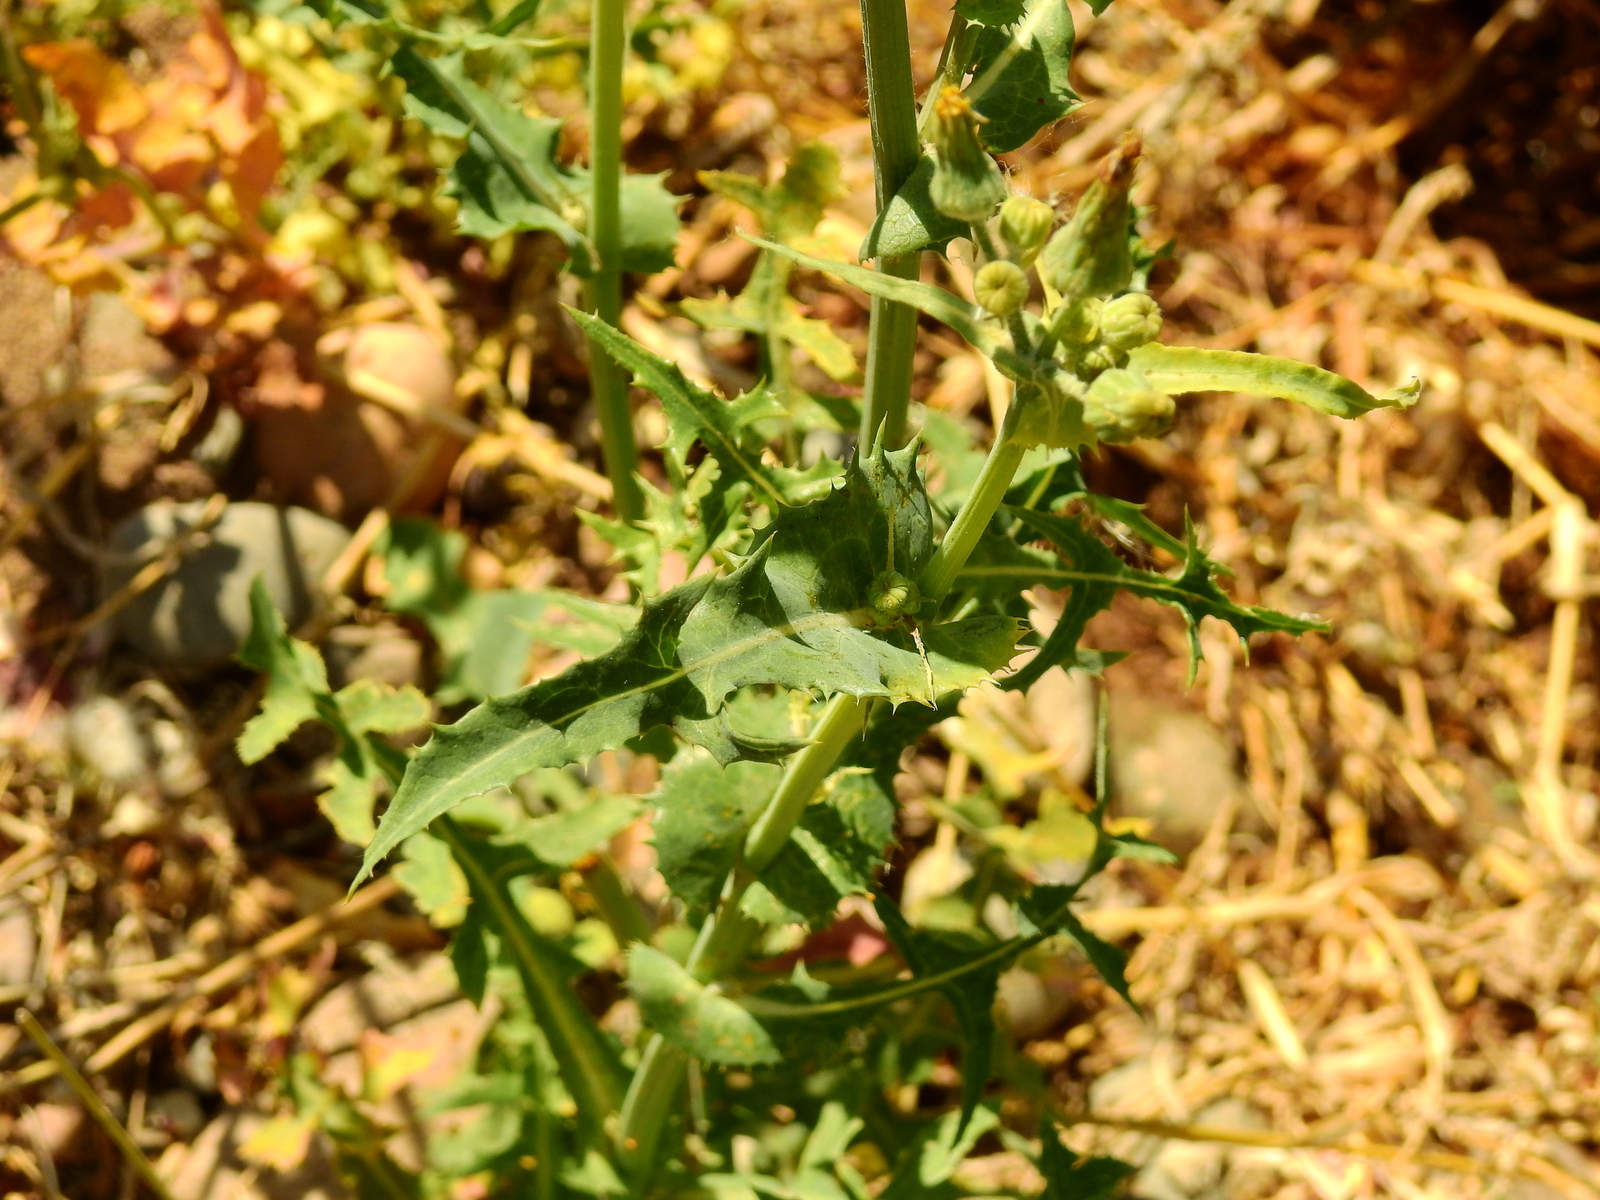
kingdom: Plantae
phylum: Tracheophyta
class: Magnoliopsida
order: Asterales
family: Asteraceae
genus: Sonchus
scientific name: Sonchus asper
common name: Prickly sow-thistle
